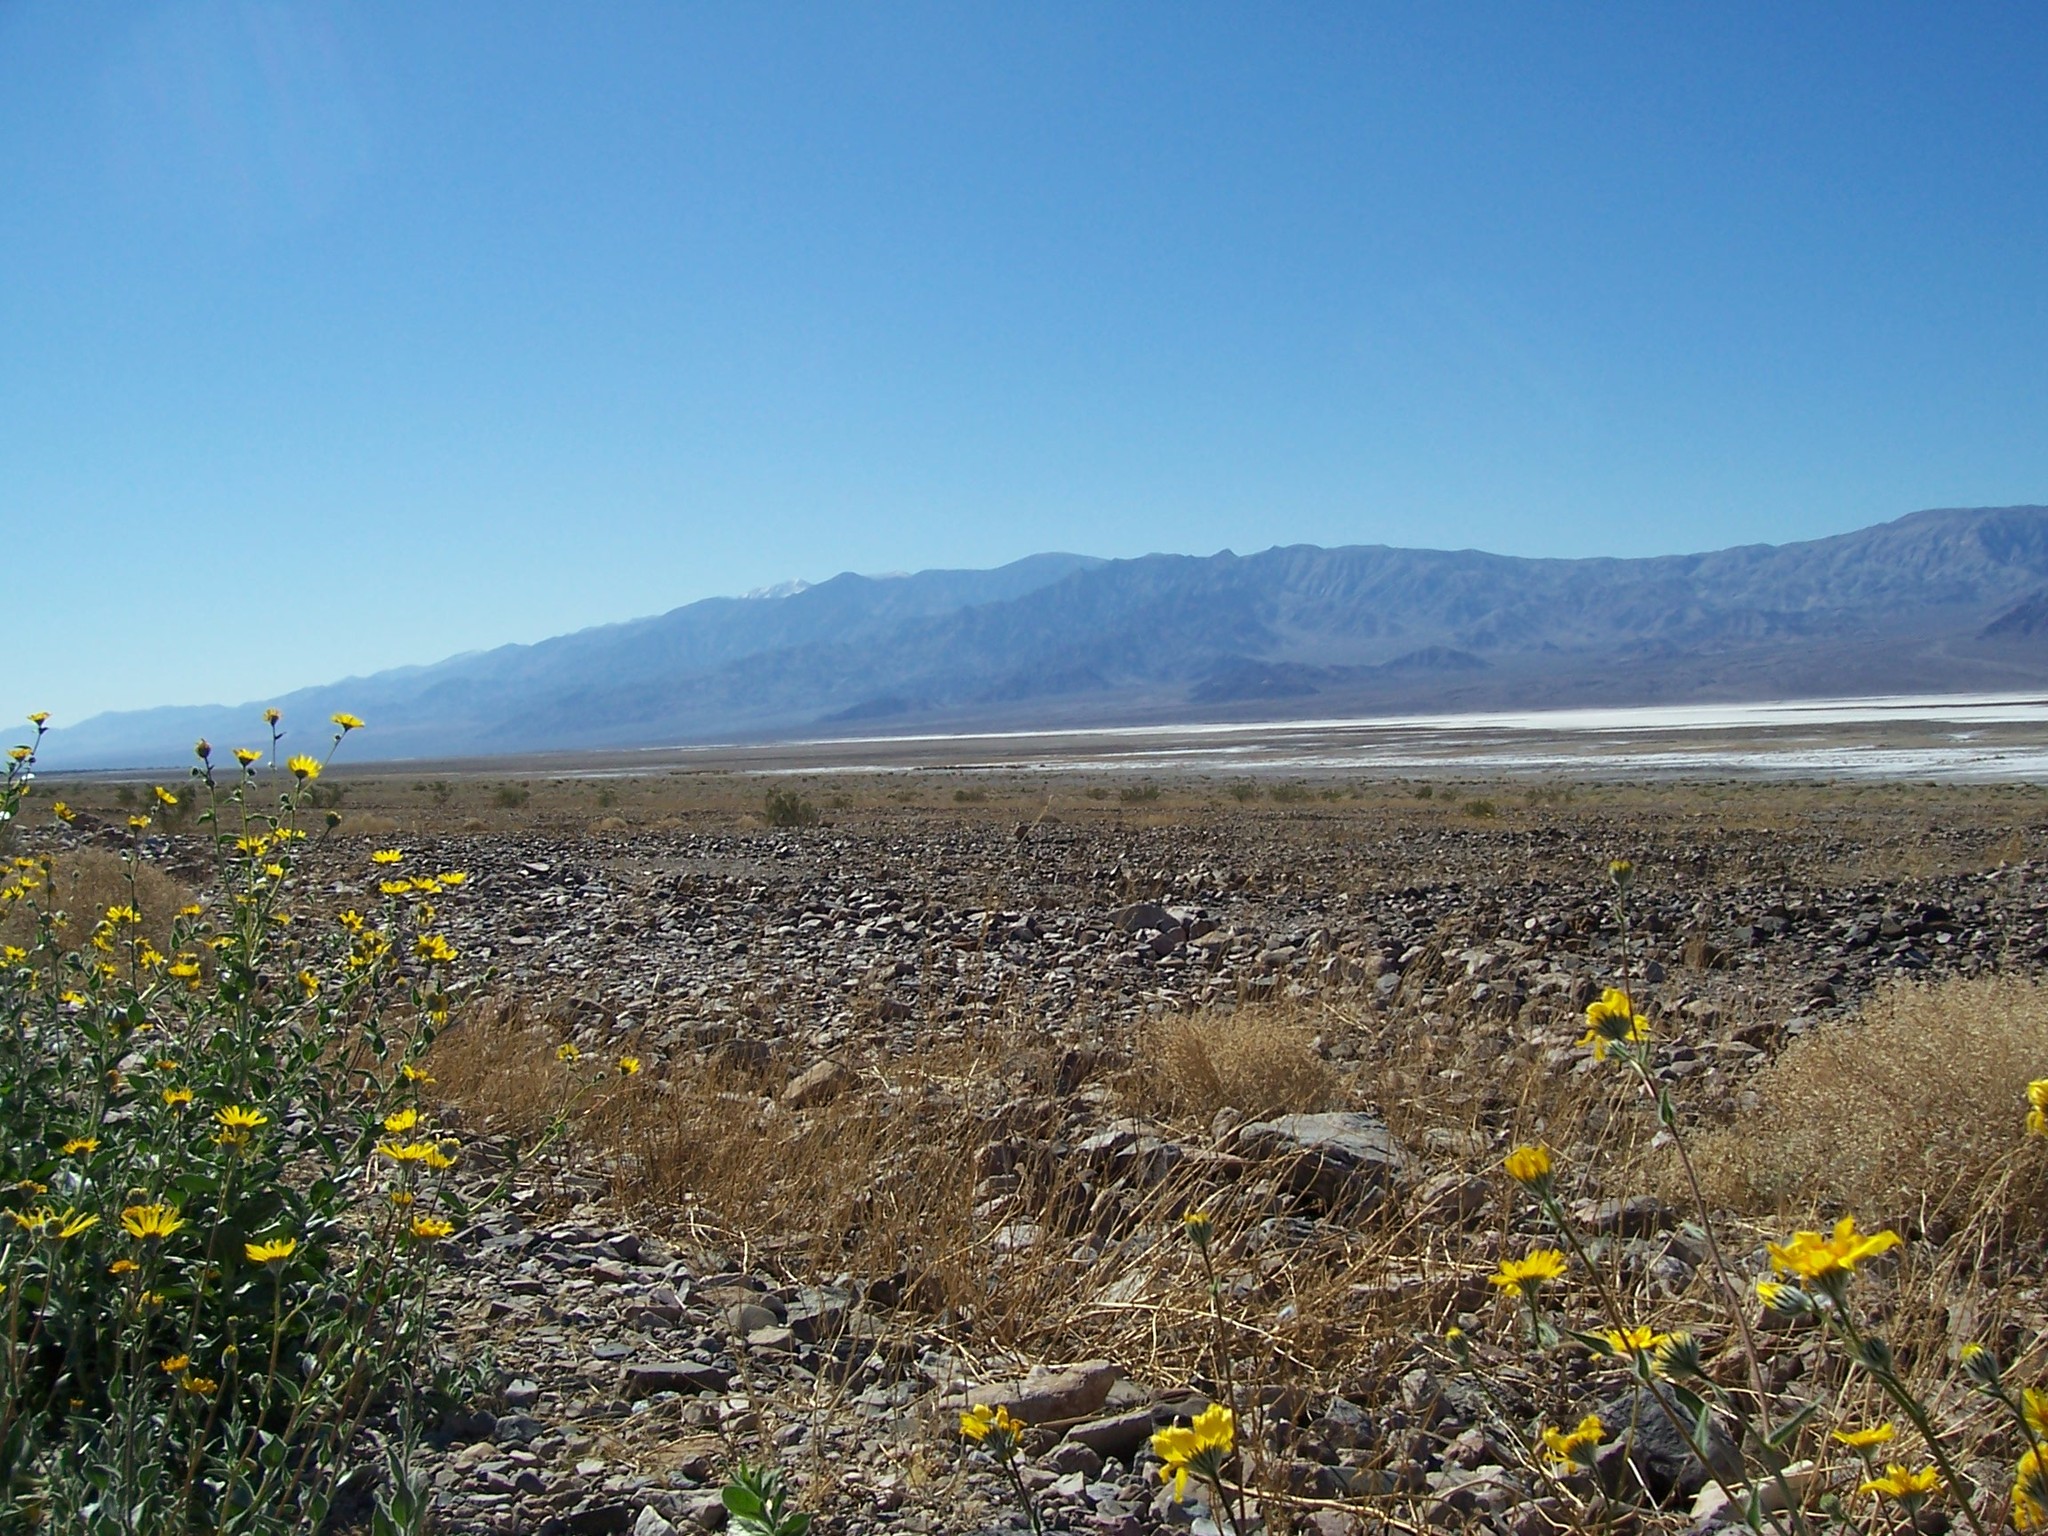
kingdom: Plantae
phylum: Tracheophyta
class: Magnoliopsida
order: Asterales
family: Asteraceae
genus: Geraea
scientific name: Geraea canescens
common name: Desert-gold
